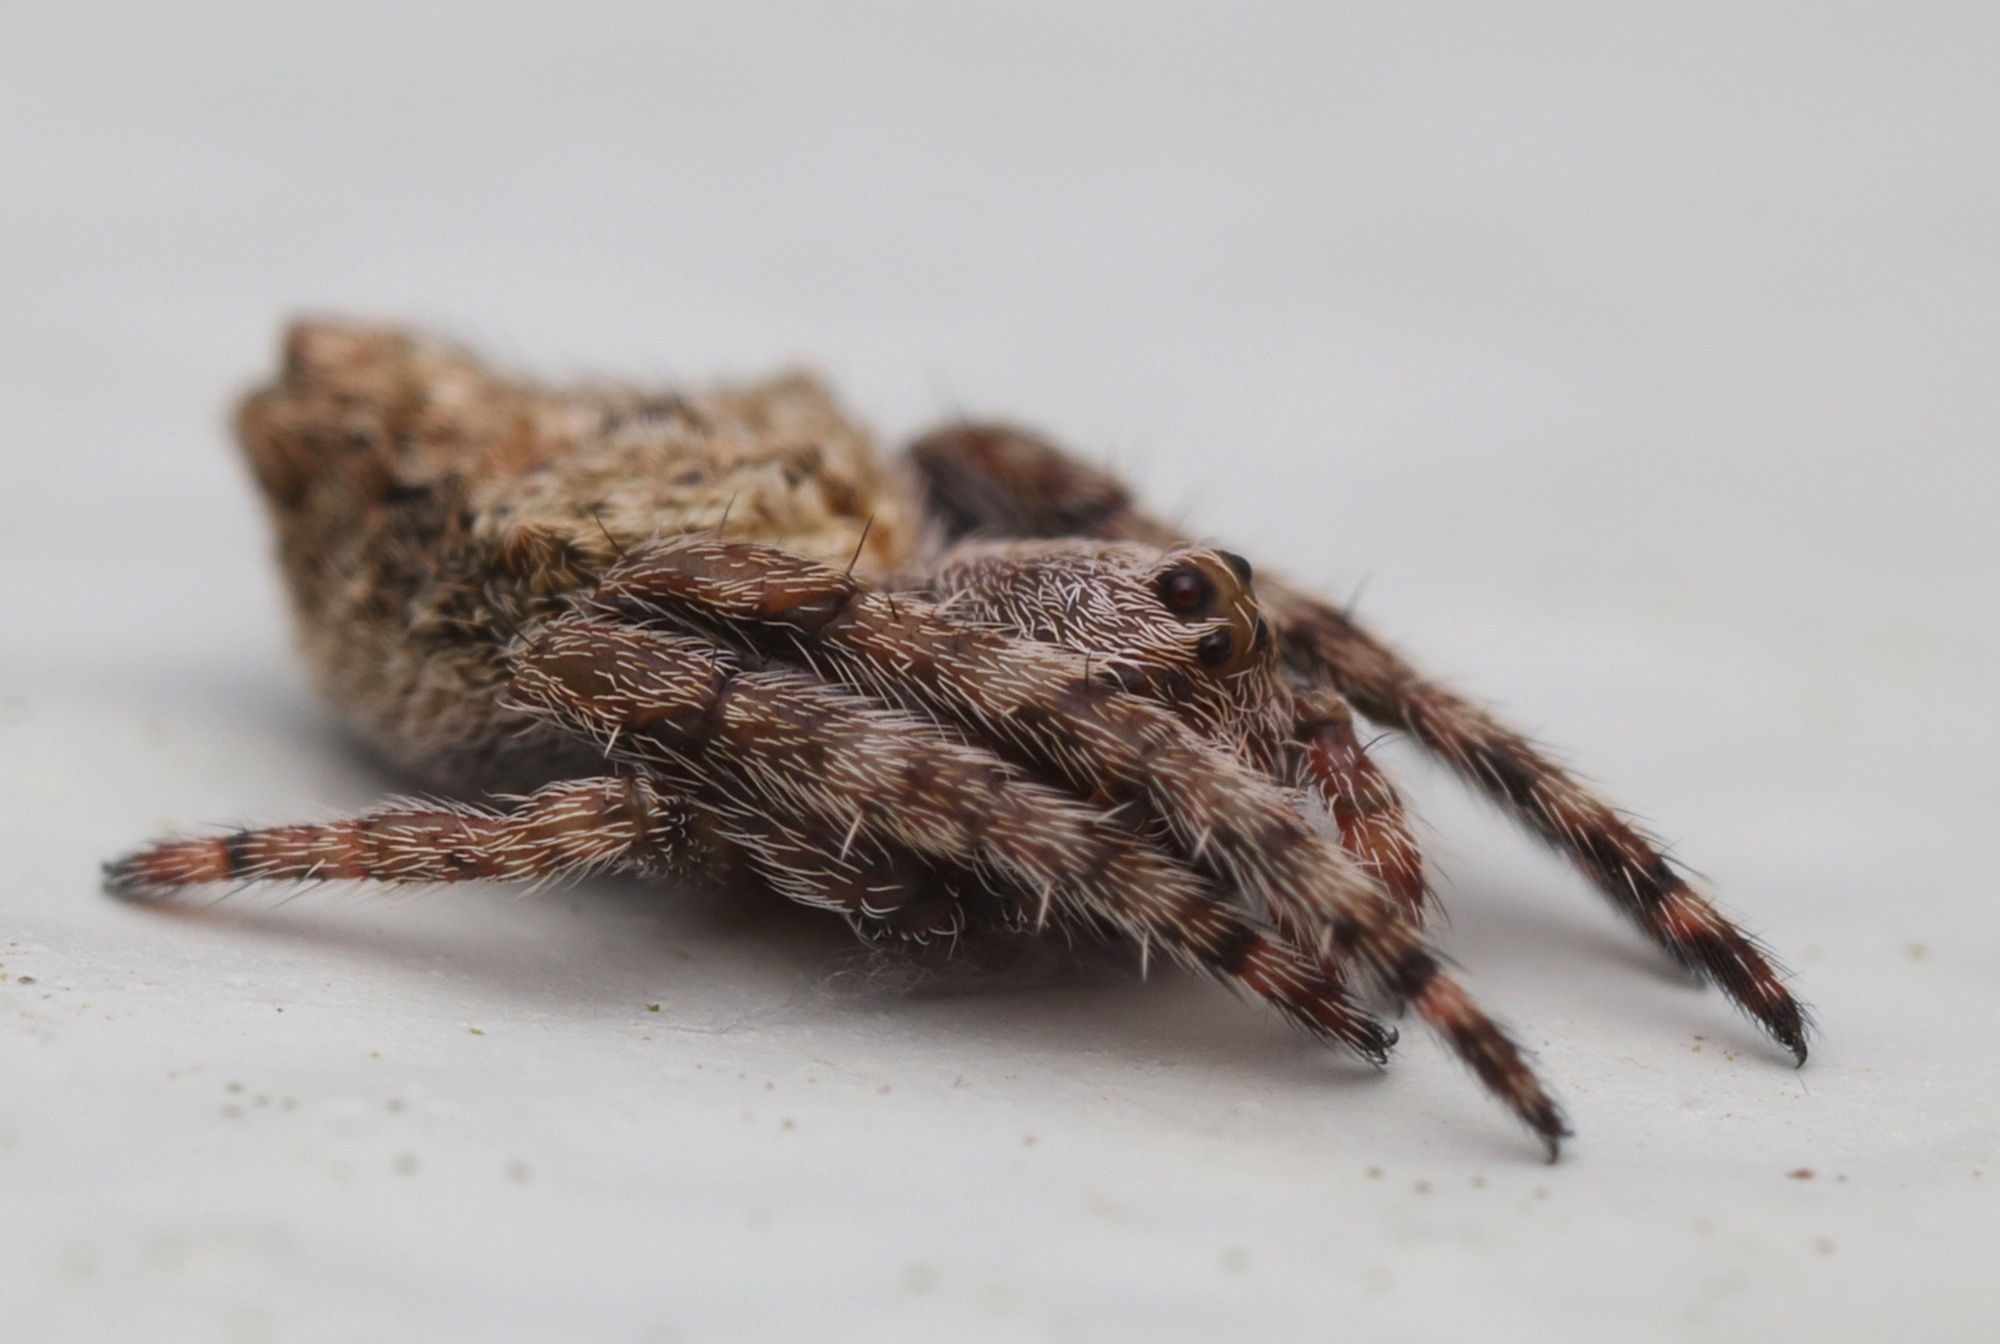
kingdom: Animalia
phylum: Arthropoda
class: Arachnida
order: Araneae
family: Araneidae
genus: Eriophora
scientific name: Eriophora pustulosa
